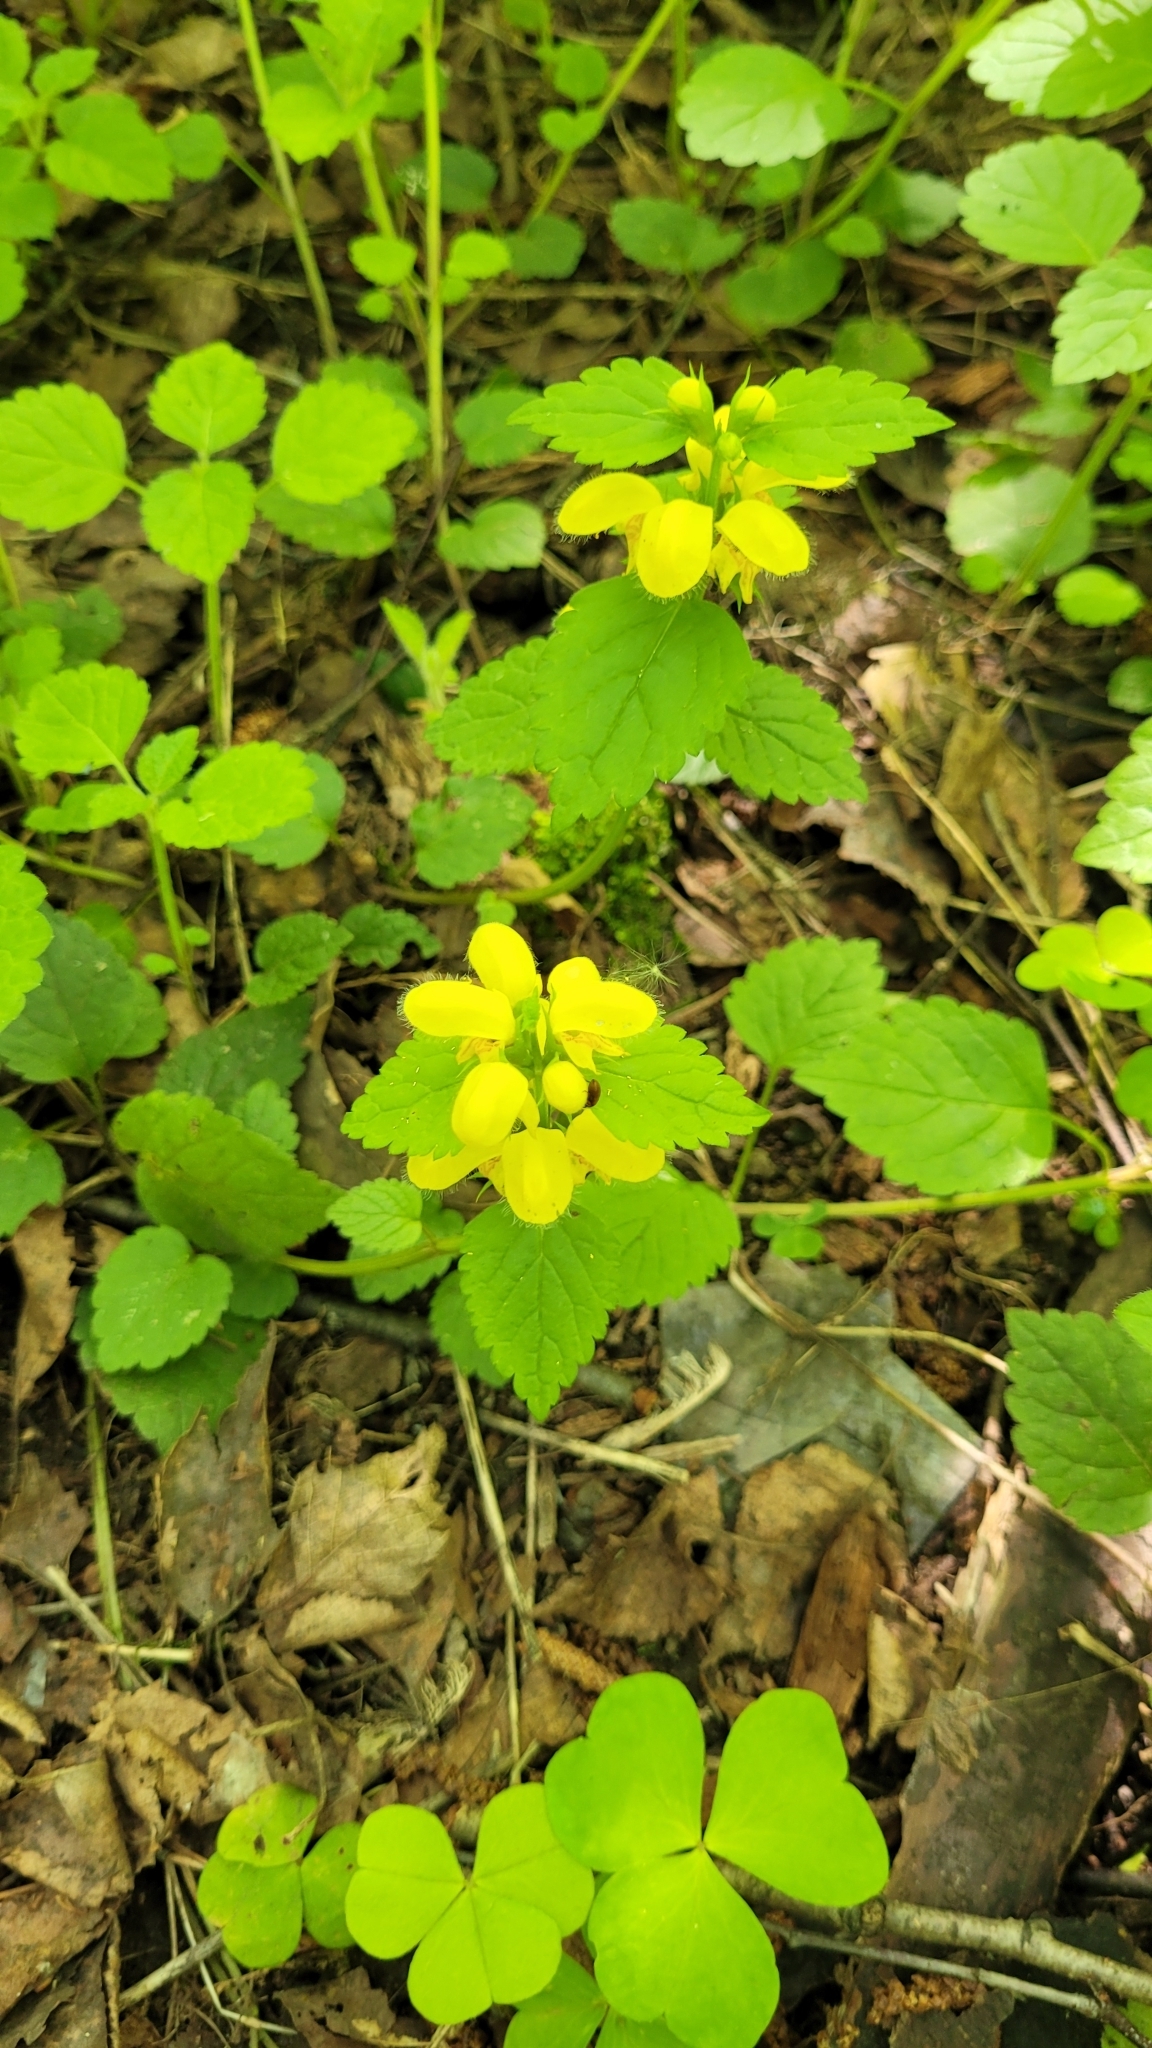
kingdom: Plantae
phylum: Tracheophyta
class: Magnoliopsida
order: Lamiales
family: Lamiaceae
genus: Lamium
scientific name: Lamium galeobdolon
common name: Yellow archangel
